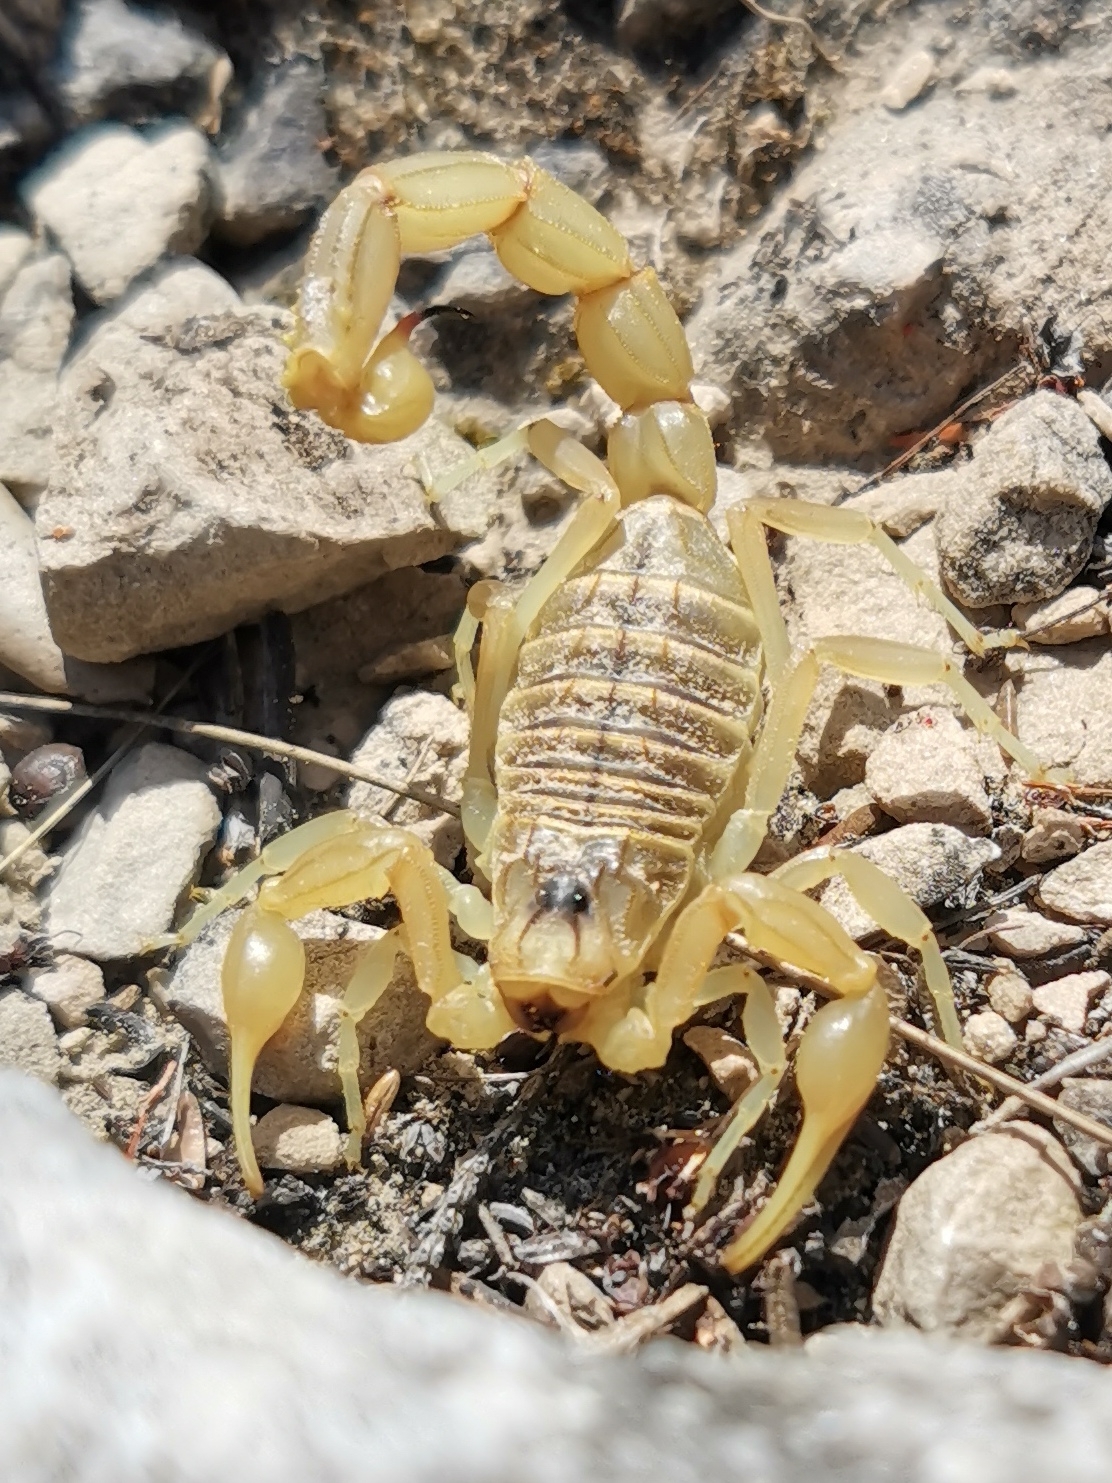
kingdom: Animalia
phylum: Arthropoda
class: Arachnida
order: Scorpiones
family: Buthidae
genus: Buthus
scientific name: Buthus occitanus
